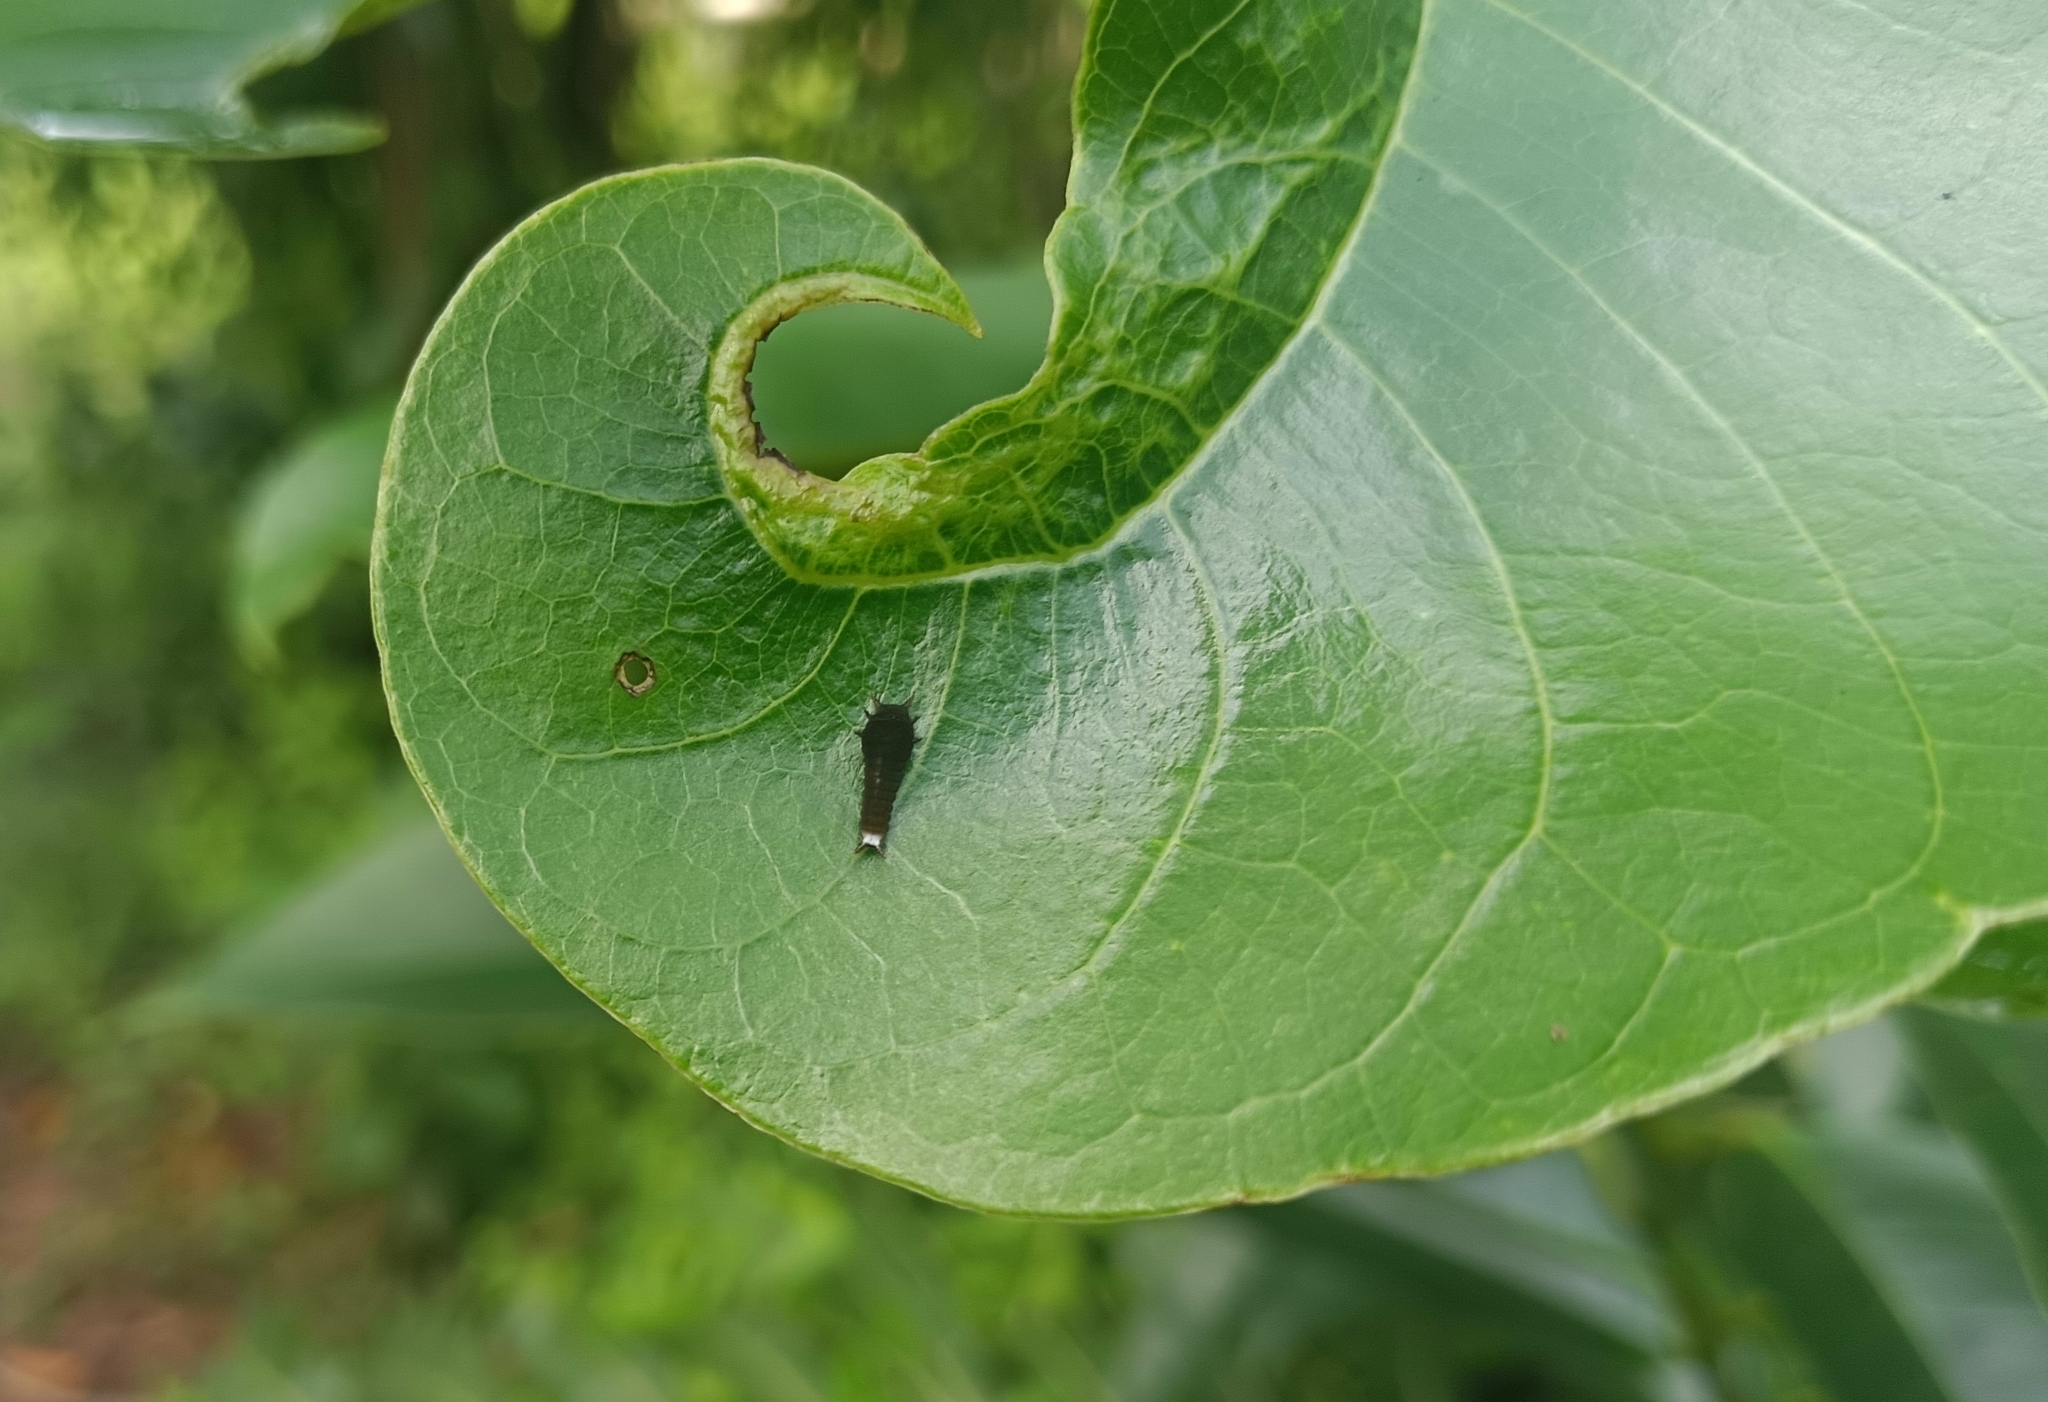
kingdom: Animalia
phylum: Arthropoda
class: Insecta
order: Lepidoptera
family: Papilionidae
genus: Graphium
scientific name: Graphium doson
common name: Common jay
